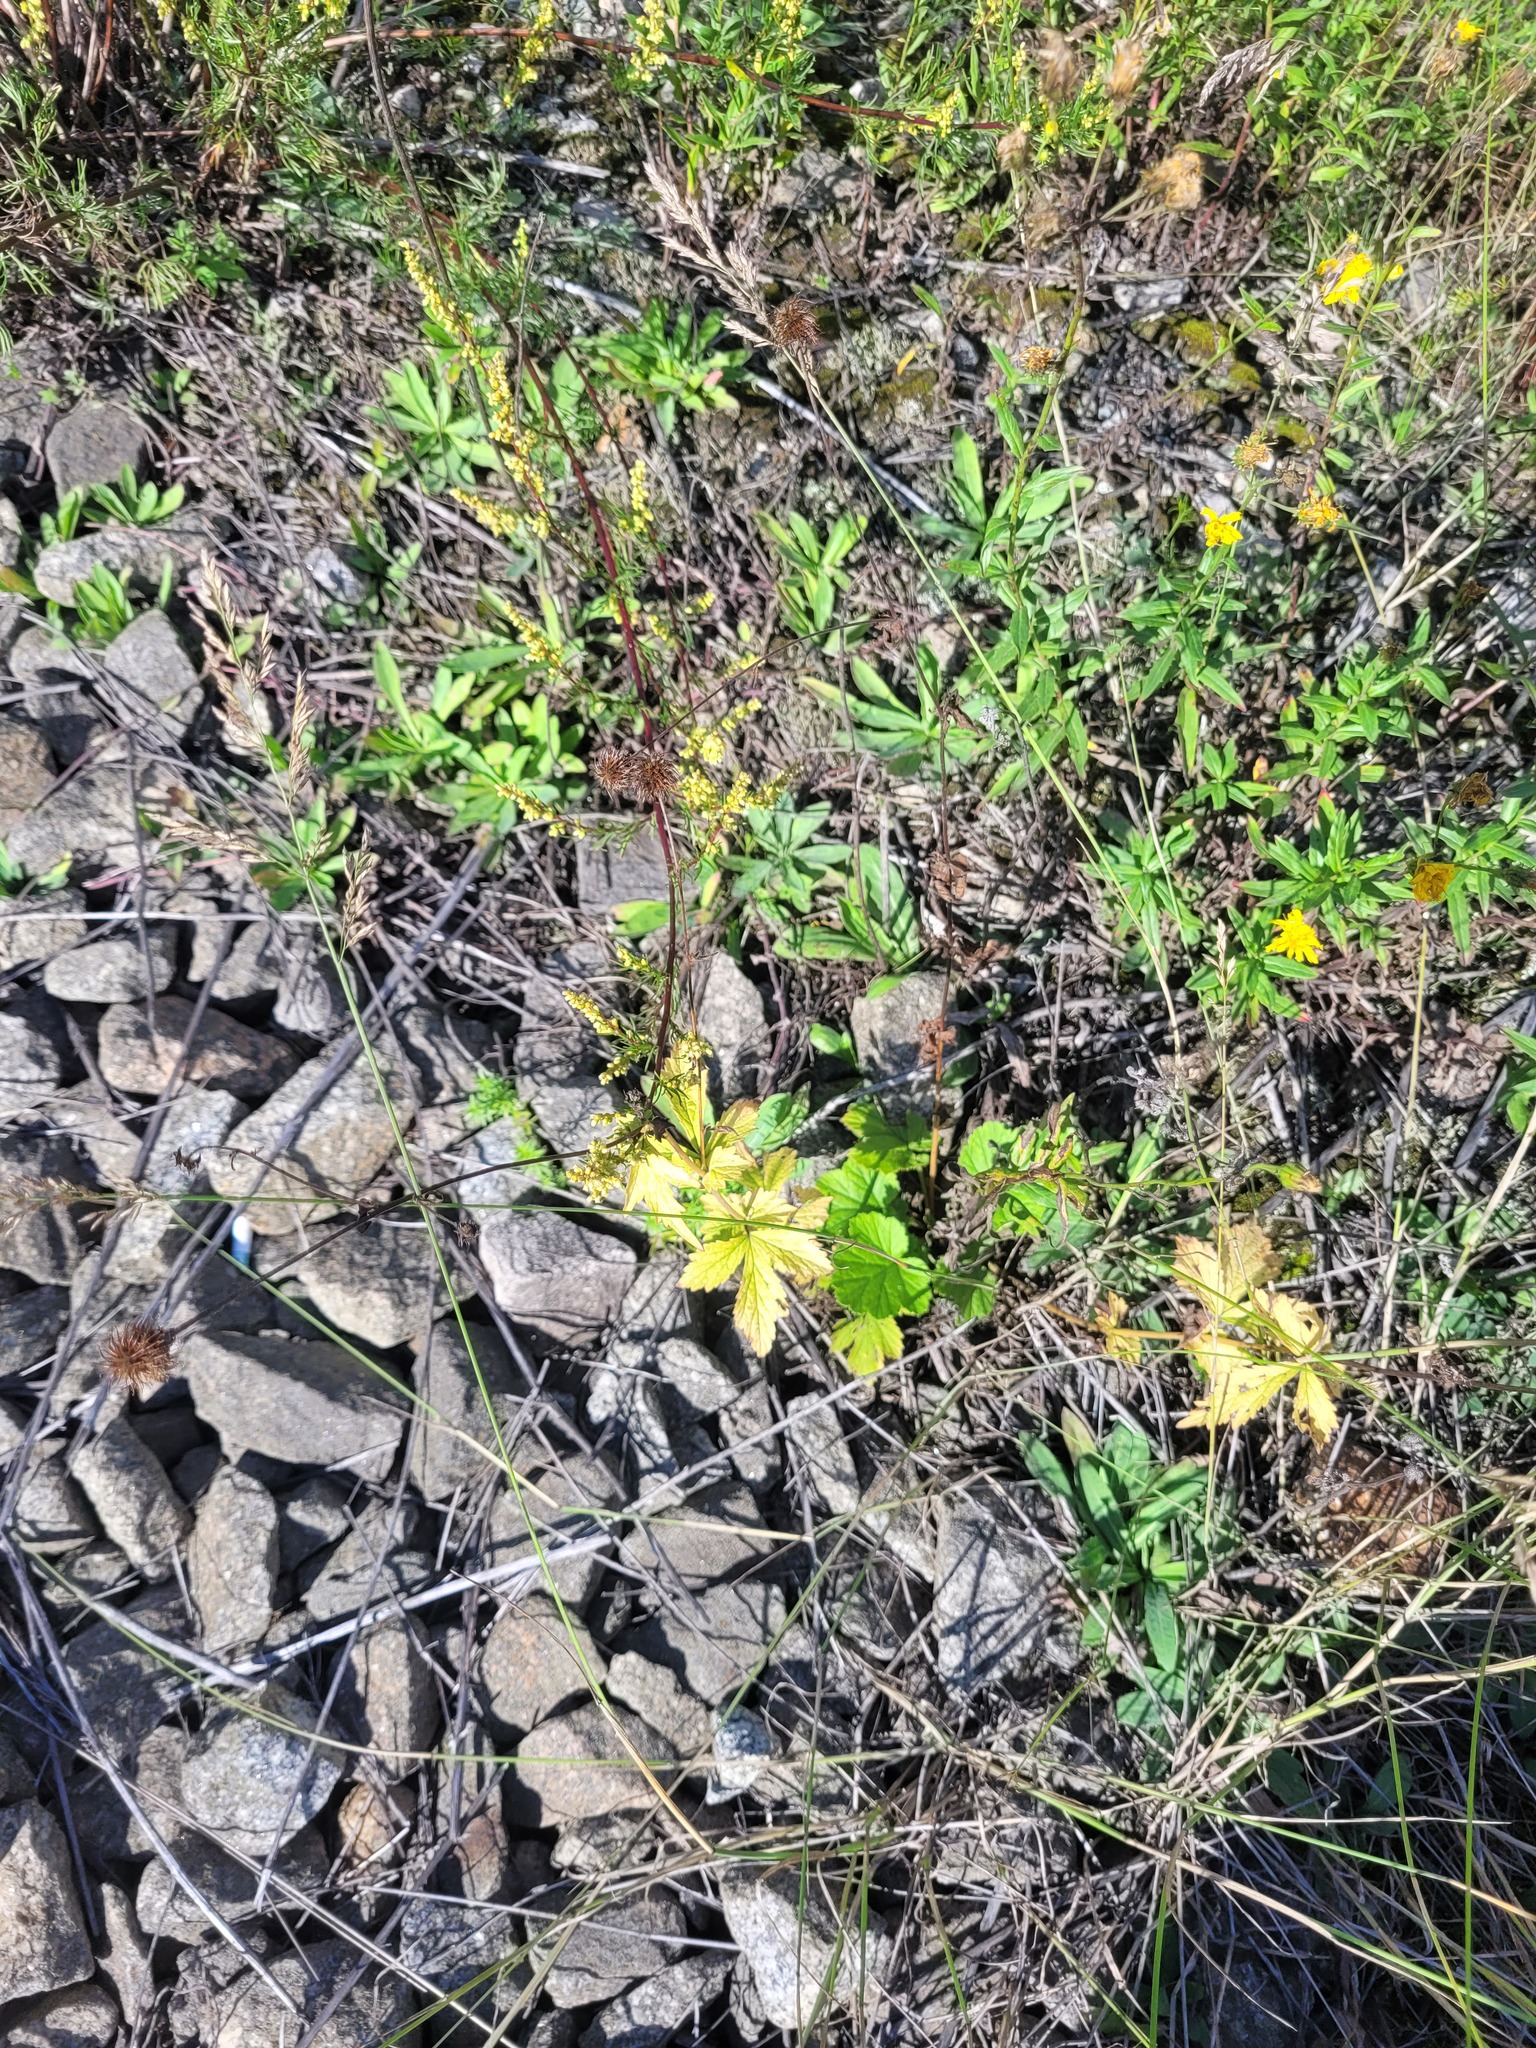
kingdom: Plantae
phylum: Tracheophyta
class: Magnoliopsida
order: Rosales
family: Rosaceae
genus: Geum
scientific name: Geum urbanum
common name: Wood avens
